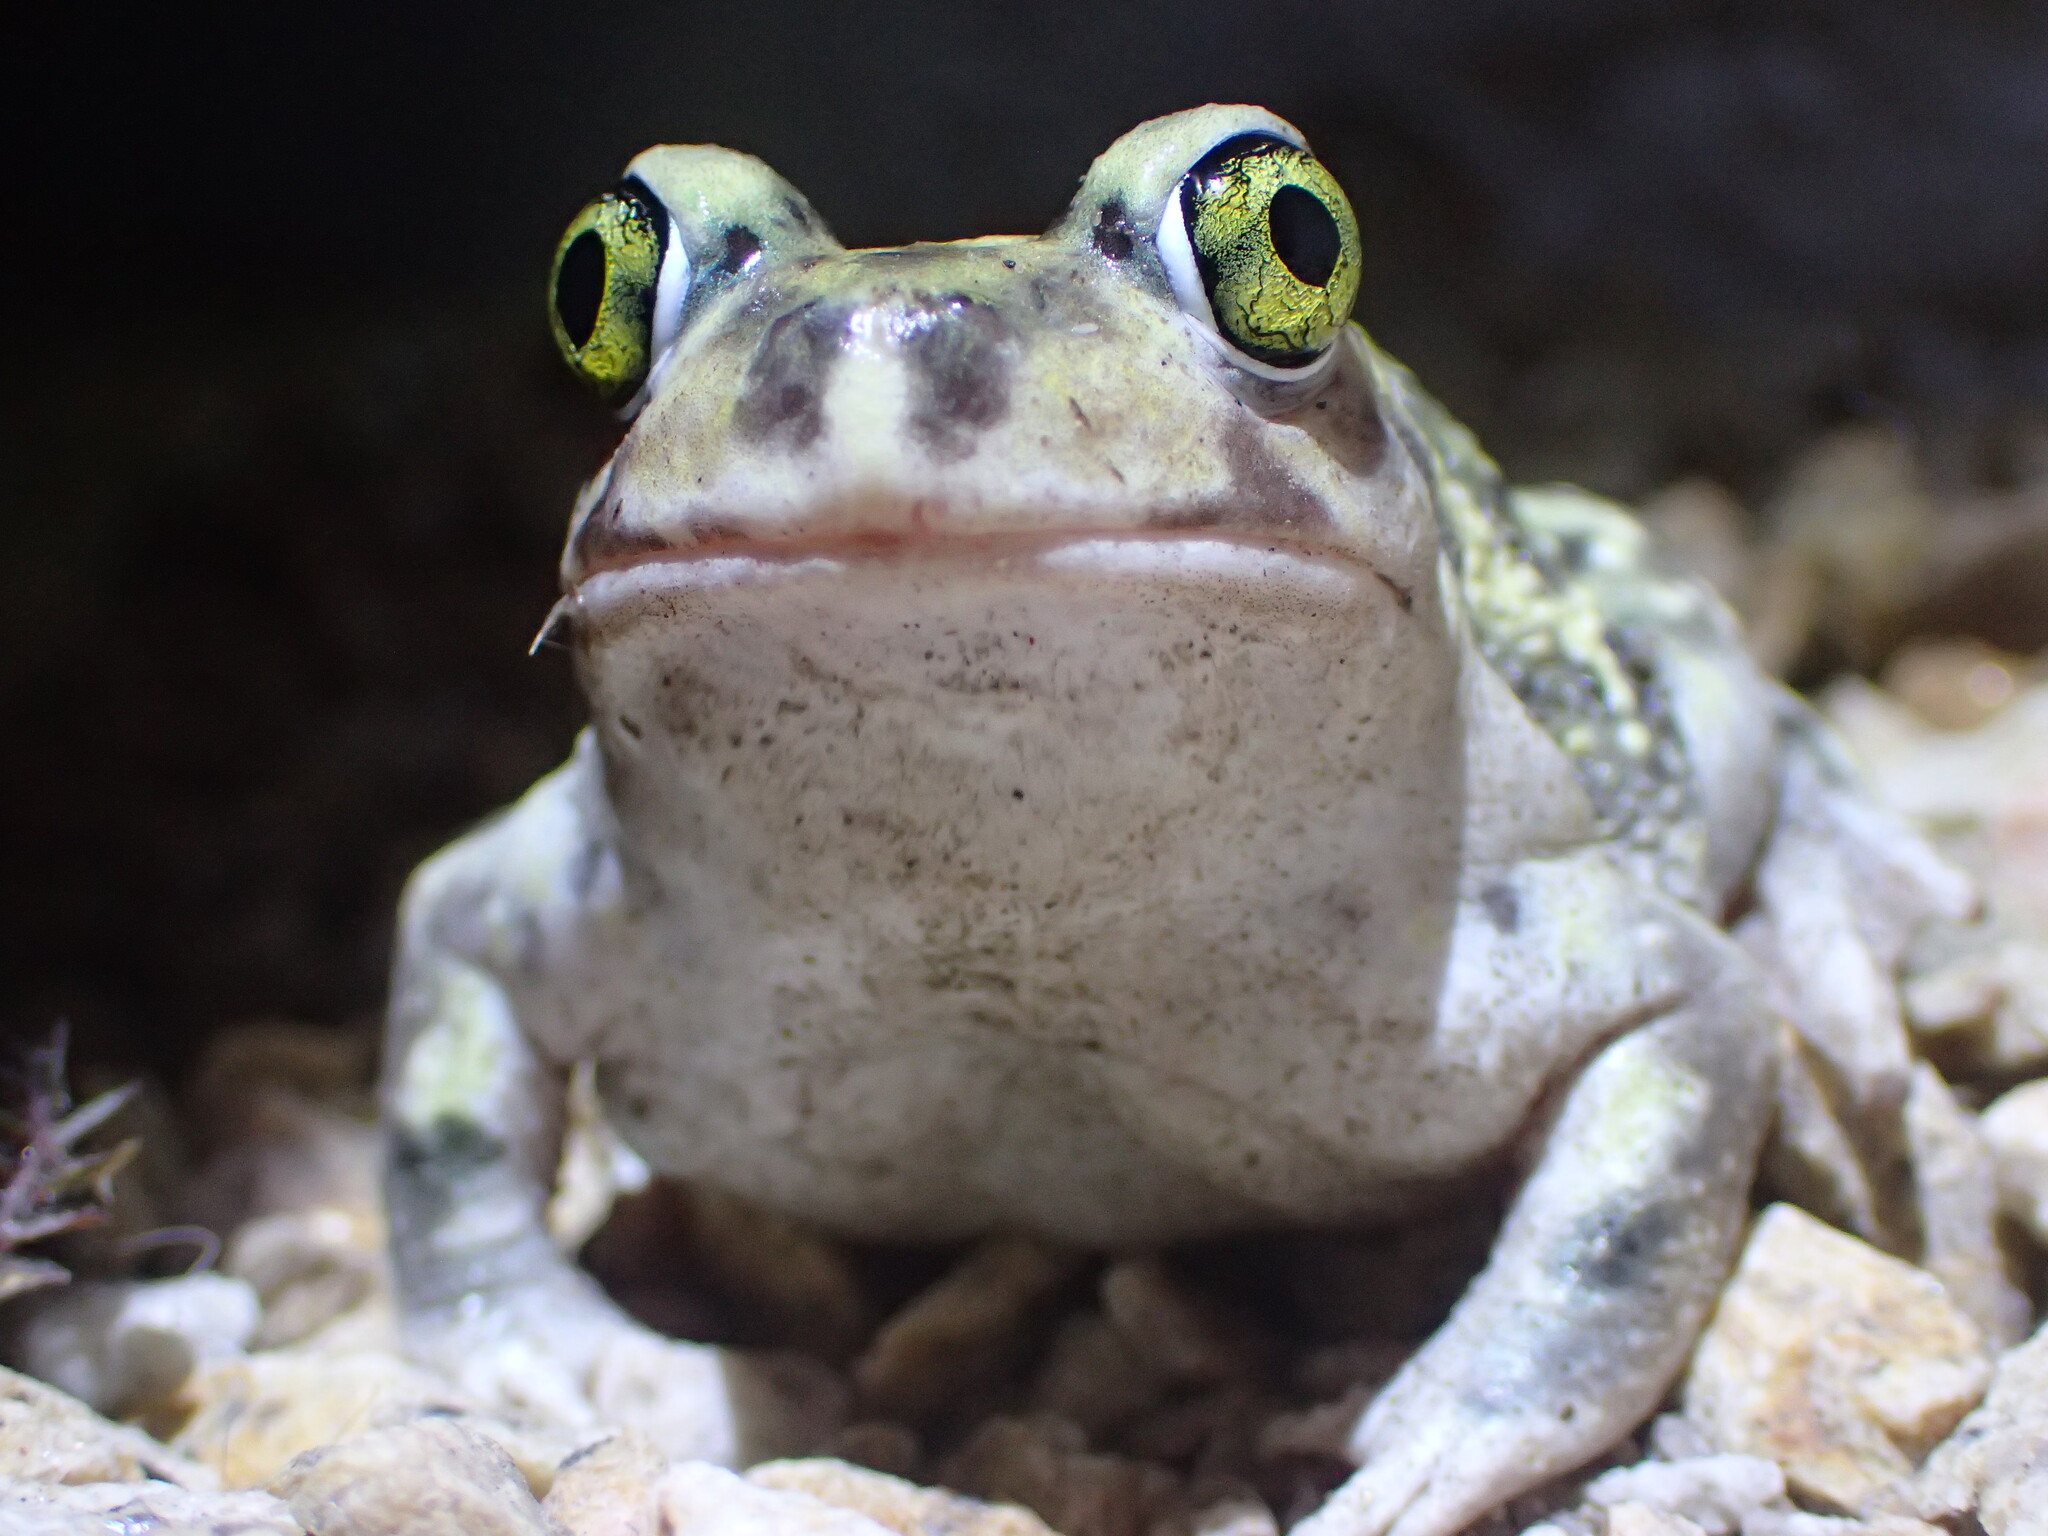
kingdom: Animalia
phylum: Chordata
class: Amphibia
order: Anura
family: Scaphiopodidae
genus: Scaphiopus
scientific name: Scaphiopus couchii
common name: Couch's spadefoot toad
